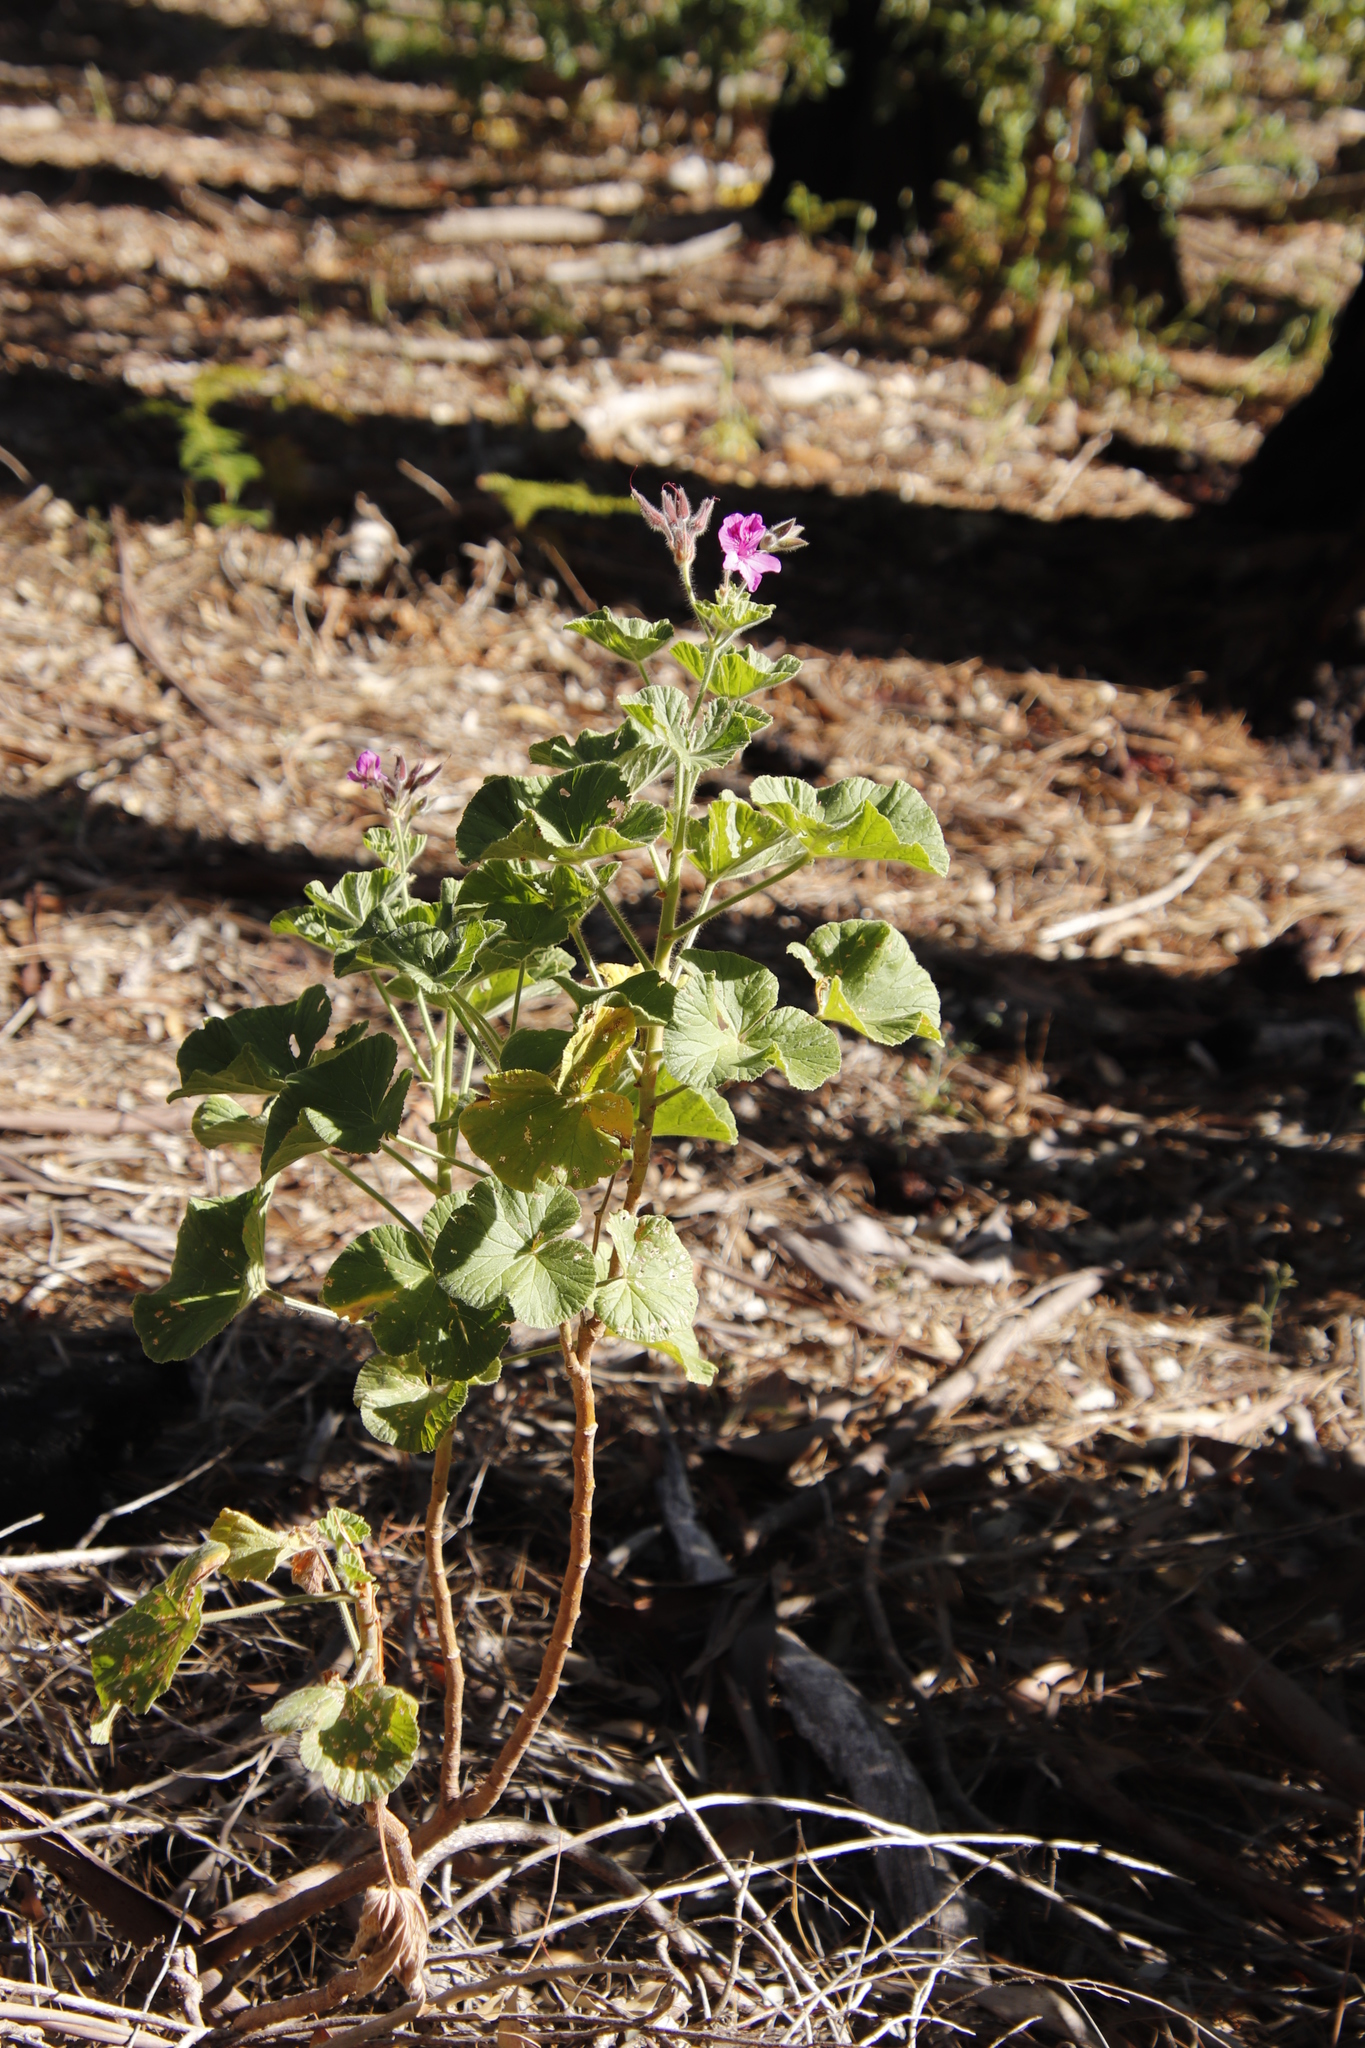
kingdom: Plantae
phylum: Tracheophyta
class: Magnoliopsida
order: Geraniales
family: Geraniaceae
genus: Pelargonium
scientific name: Pelargonium cucullatum
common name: Tree pelargonium
